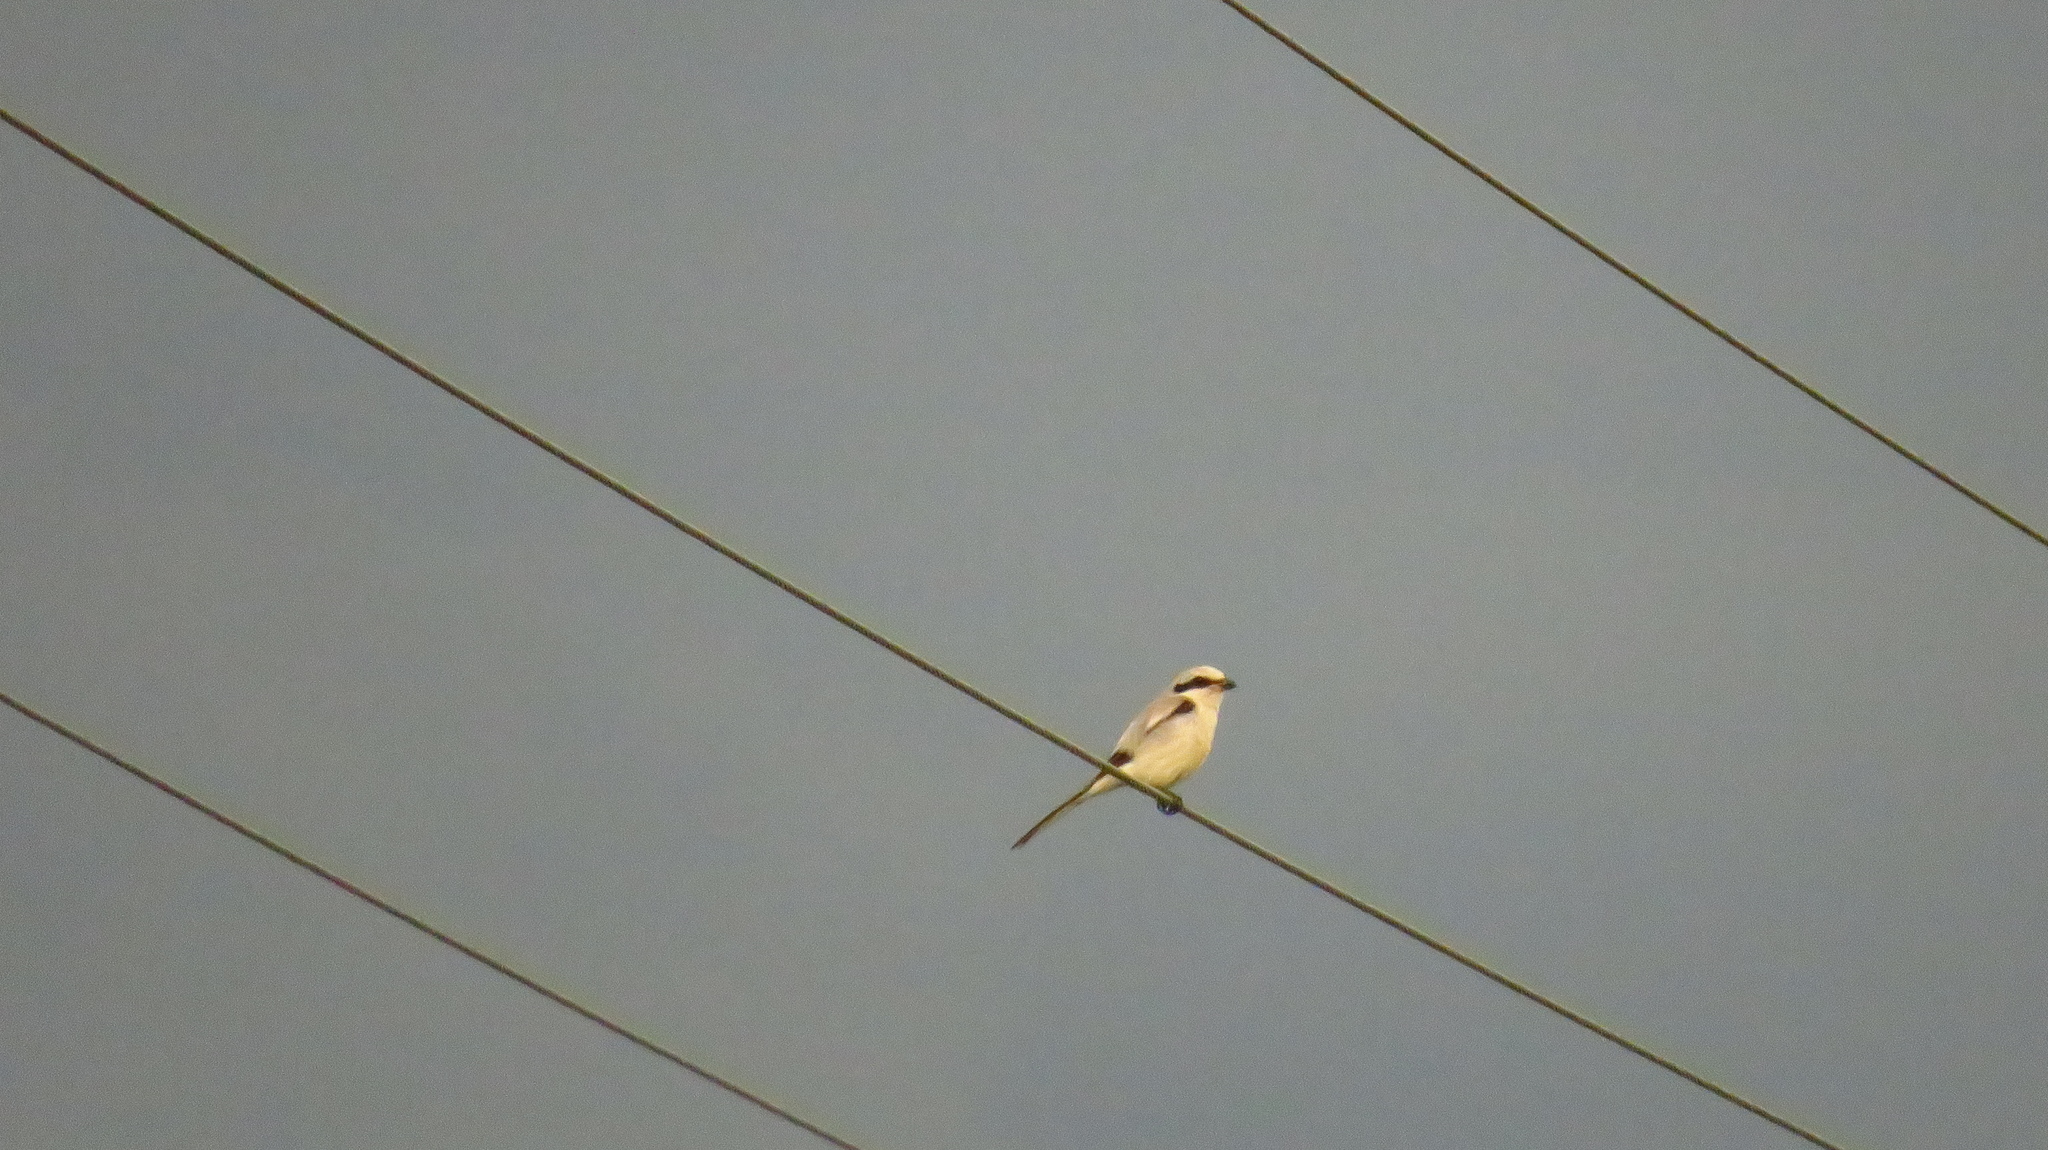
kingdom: Animalia
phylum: Chordata
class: Aves
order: Passeriformes
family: Laniidae
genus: Lanius
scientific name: Lanius excubitor
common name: Great grey shrike
